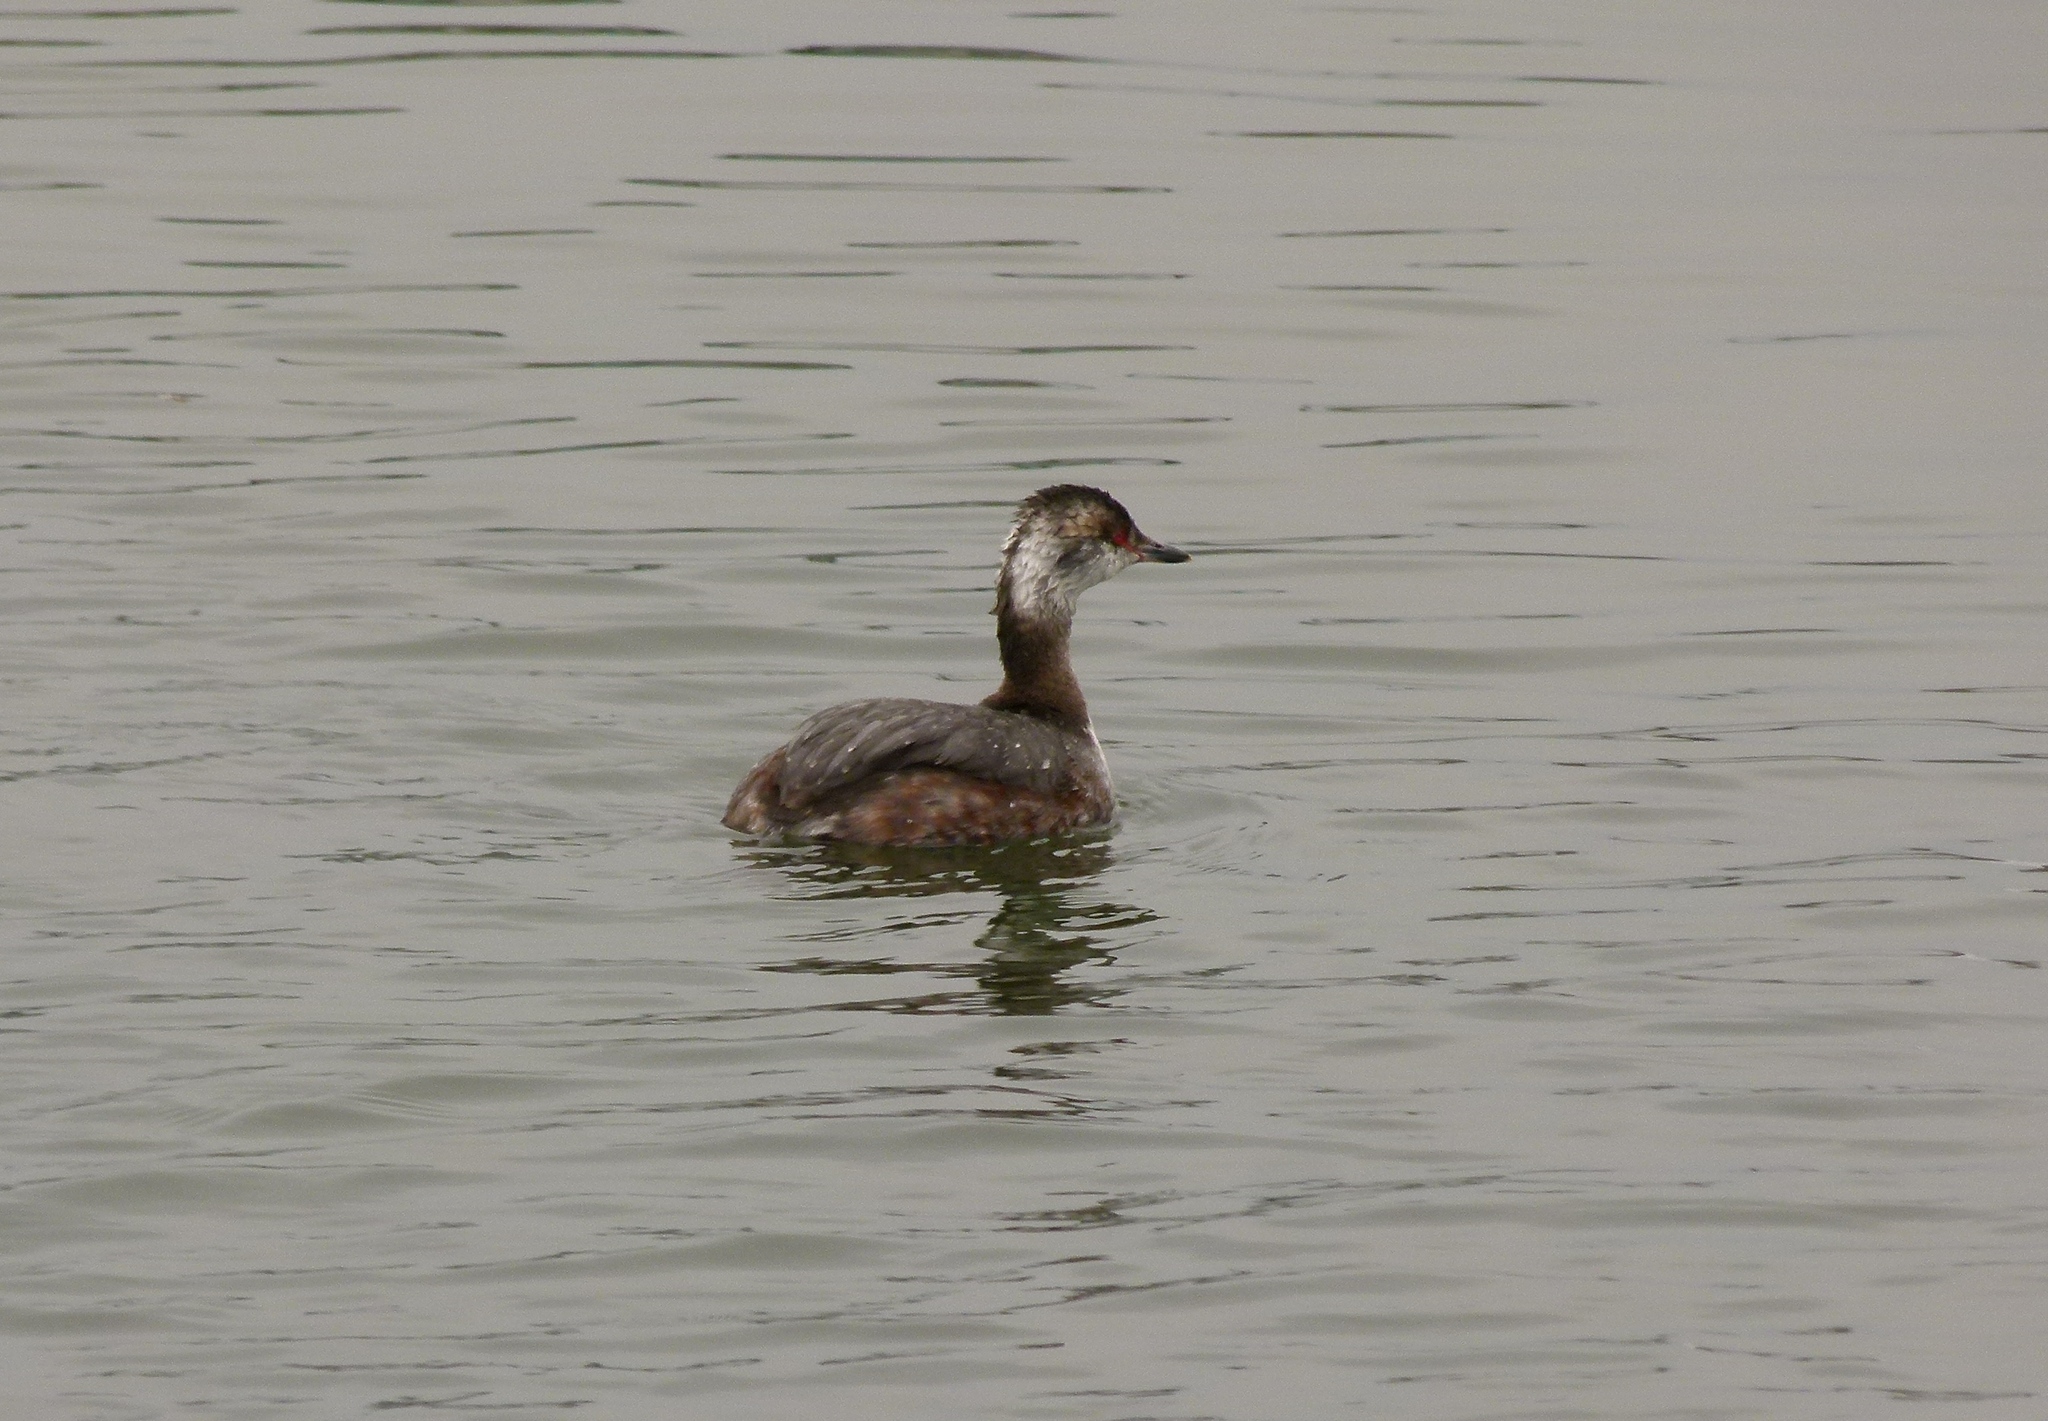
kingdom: Animalia
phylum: Chordata
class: Aves
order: Podicipediformes
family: Podicipedidae
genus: Podiceps
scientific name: Podiceps auritus
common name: Horned grebe
